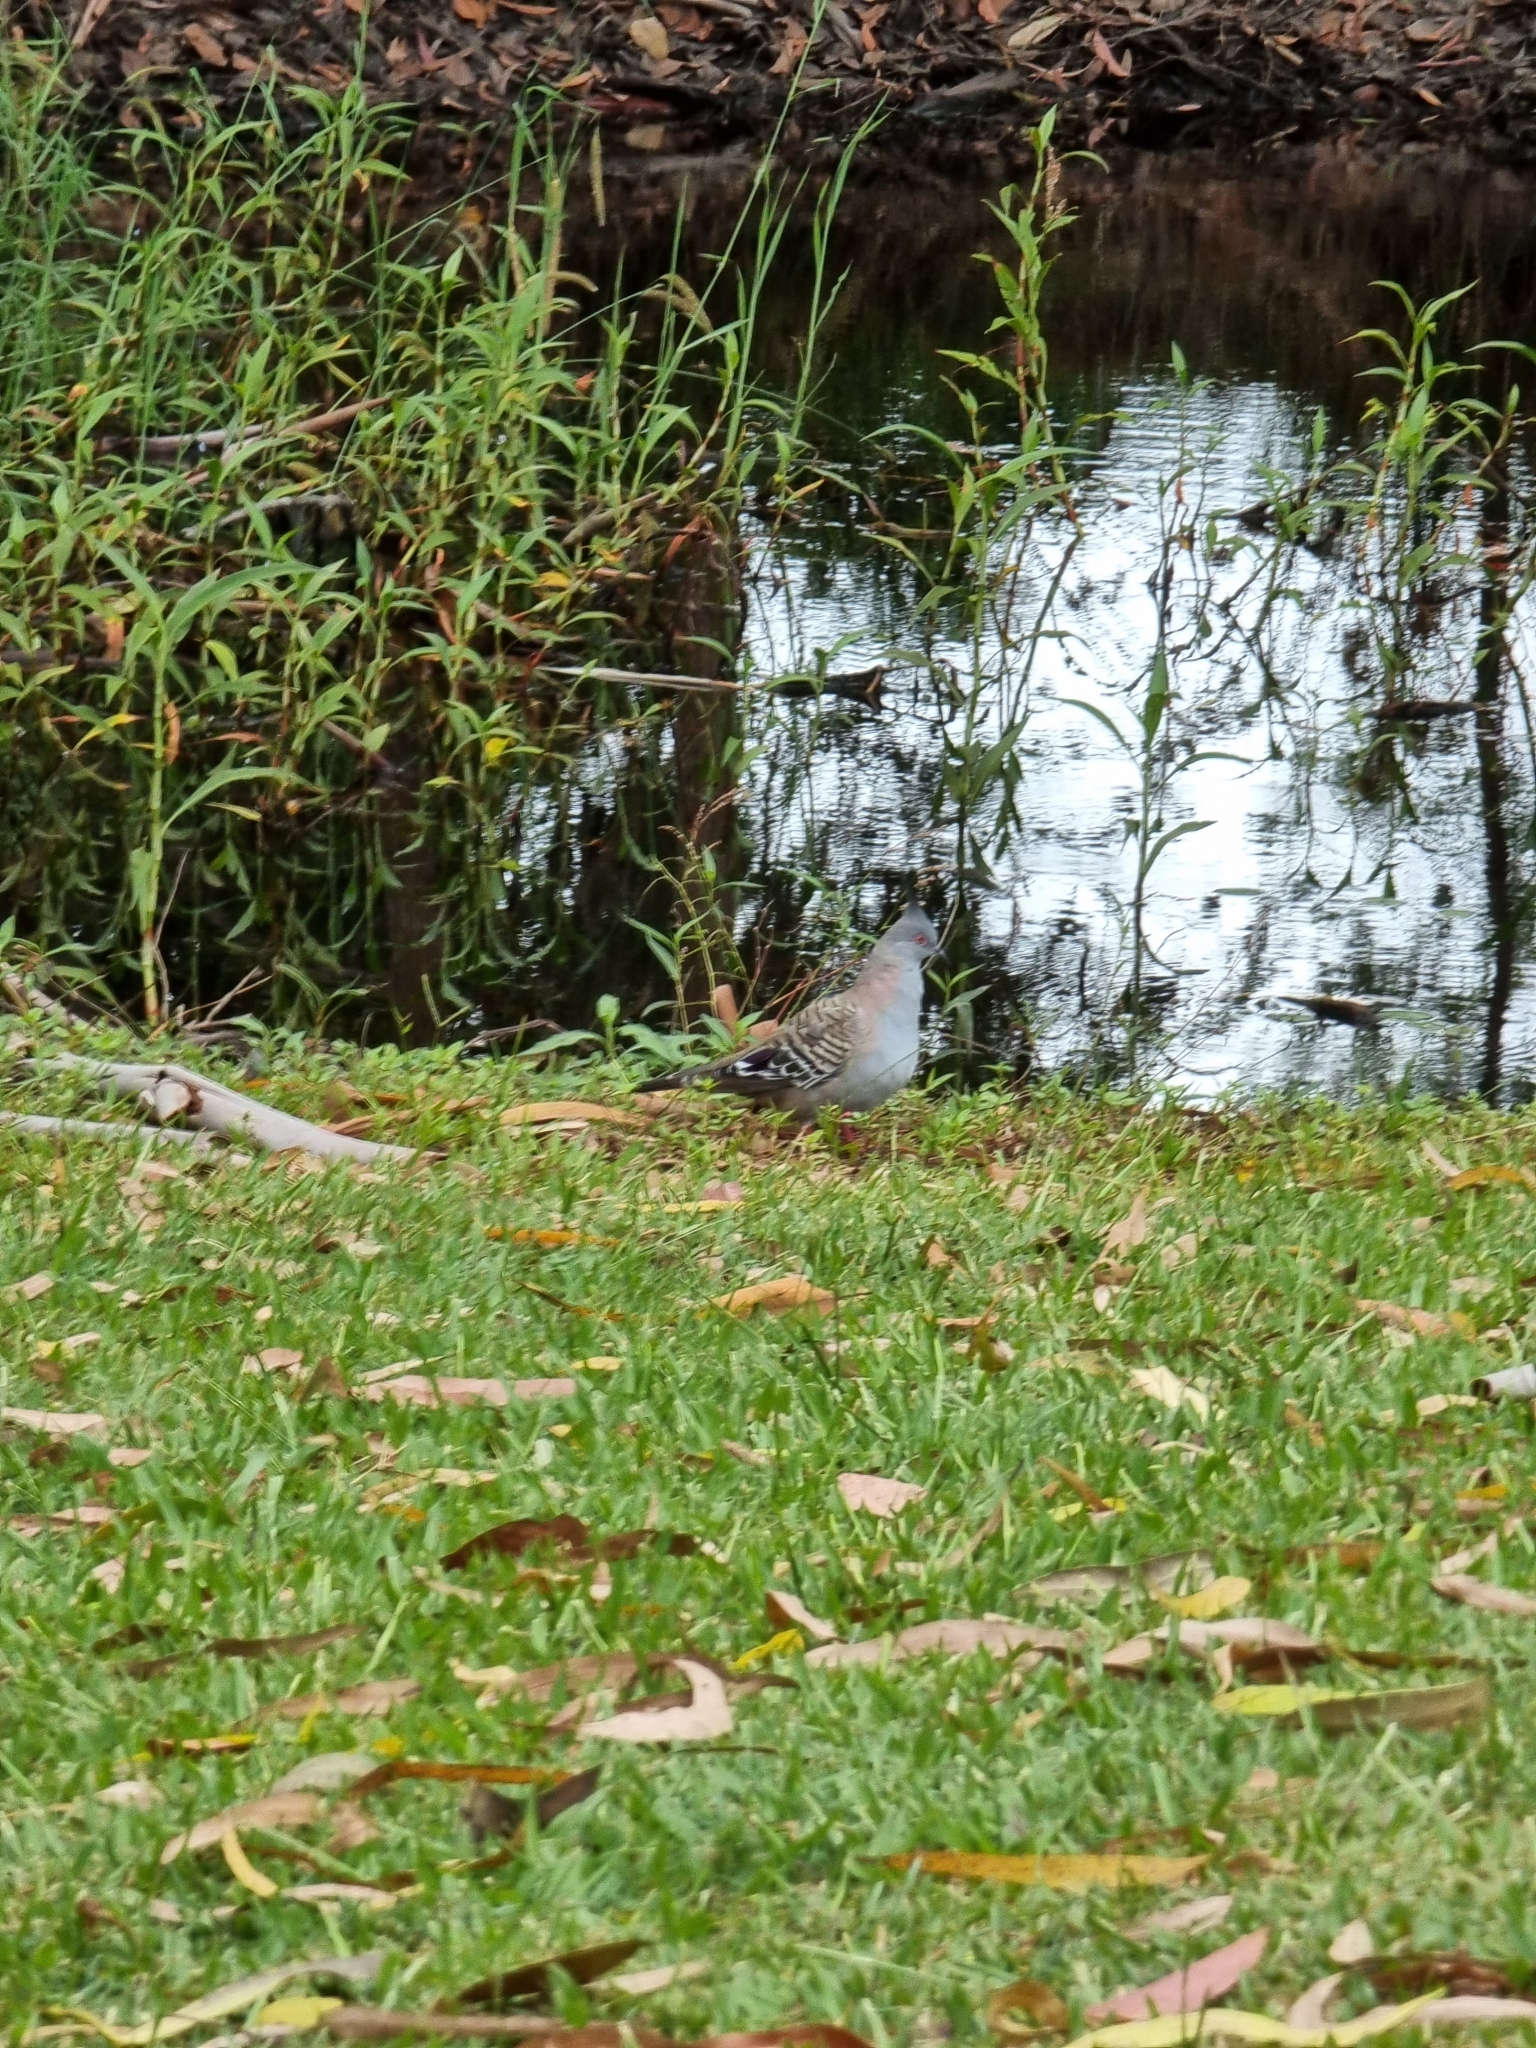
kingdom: Animalia
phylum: Chordata
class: Aves
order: Columbiformes
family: Columbidae
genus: Ocyphaps
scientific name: Ocyphaps lophotes
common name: Crested pigeon
